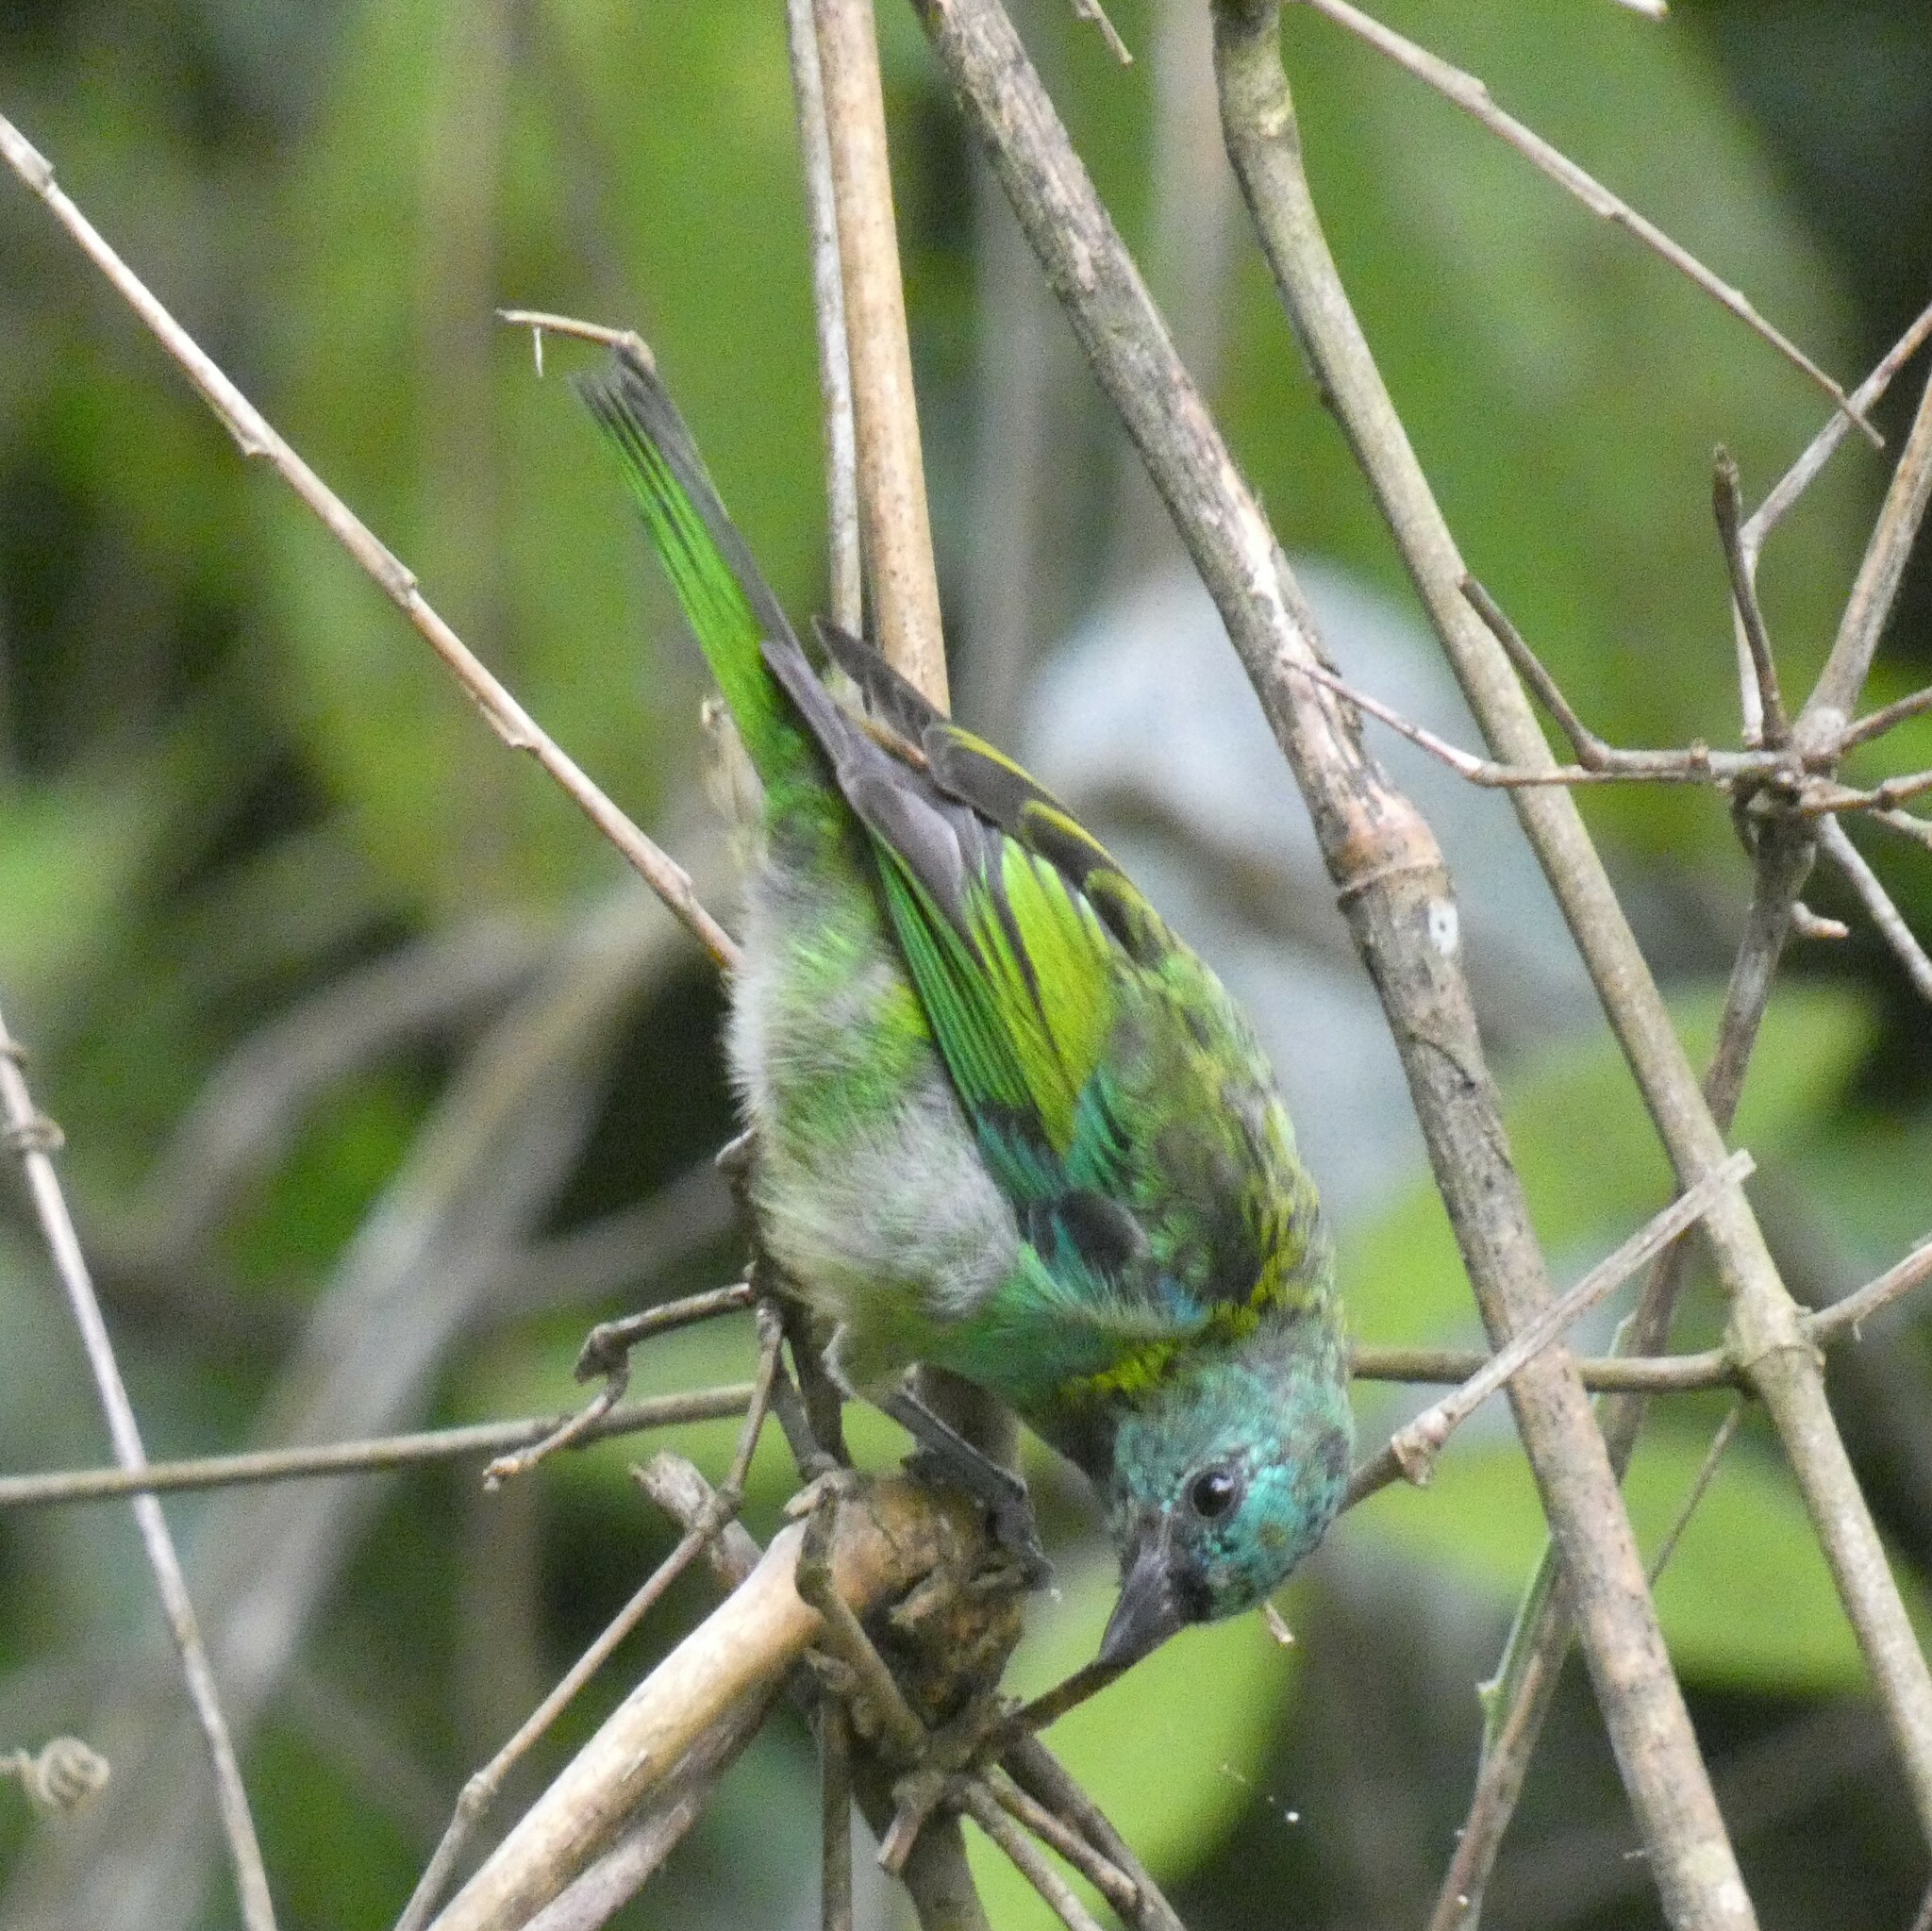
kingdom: Animalia
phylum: Chordata
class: Aves
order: Passeriformes
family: Thraupidae
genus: Tangara
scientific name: Tangara seledon
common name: Green-headed tanager
